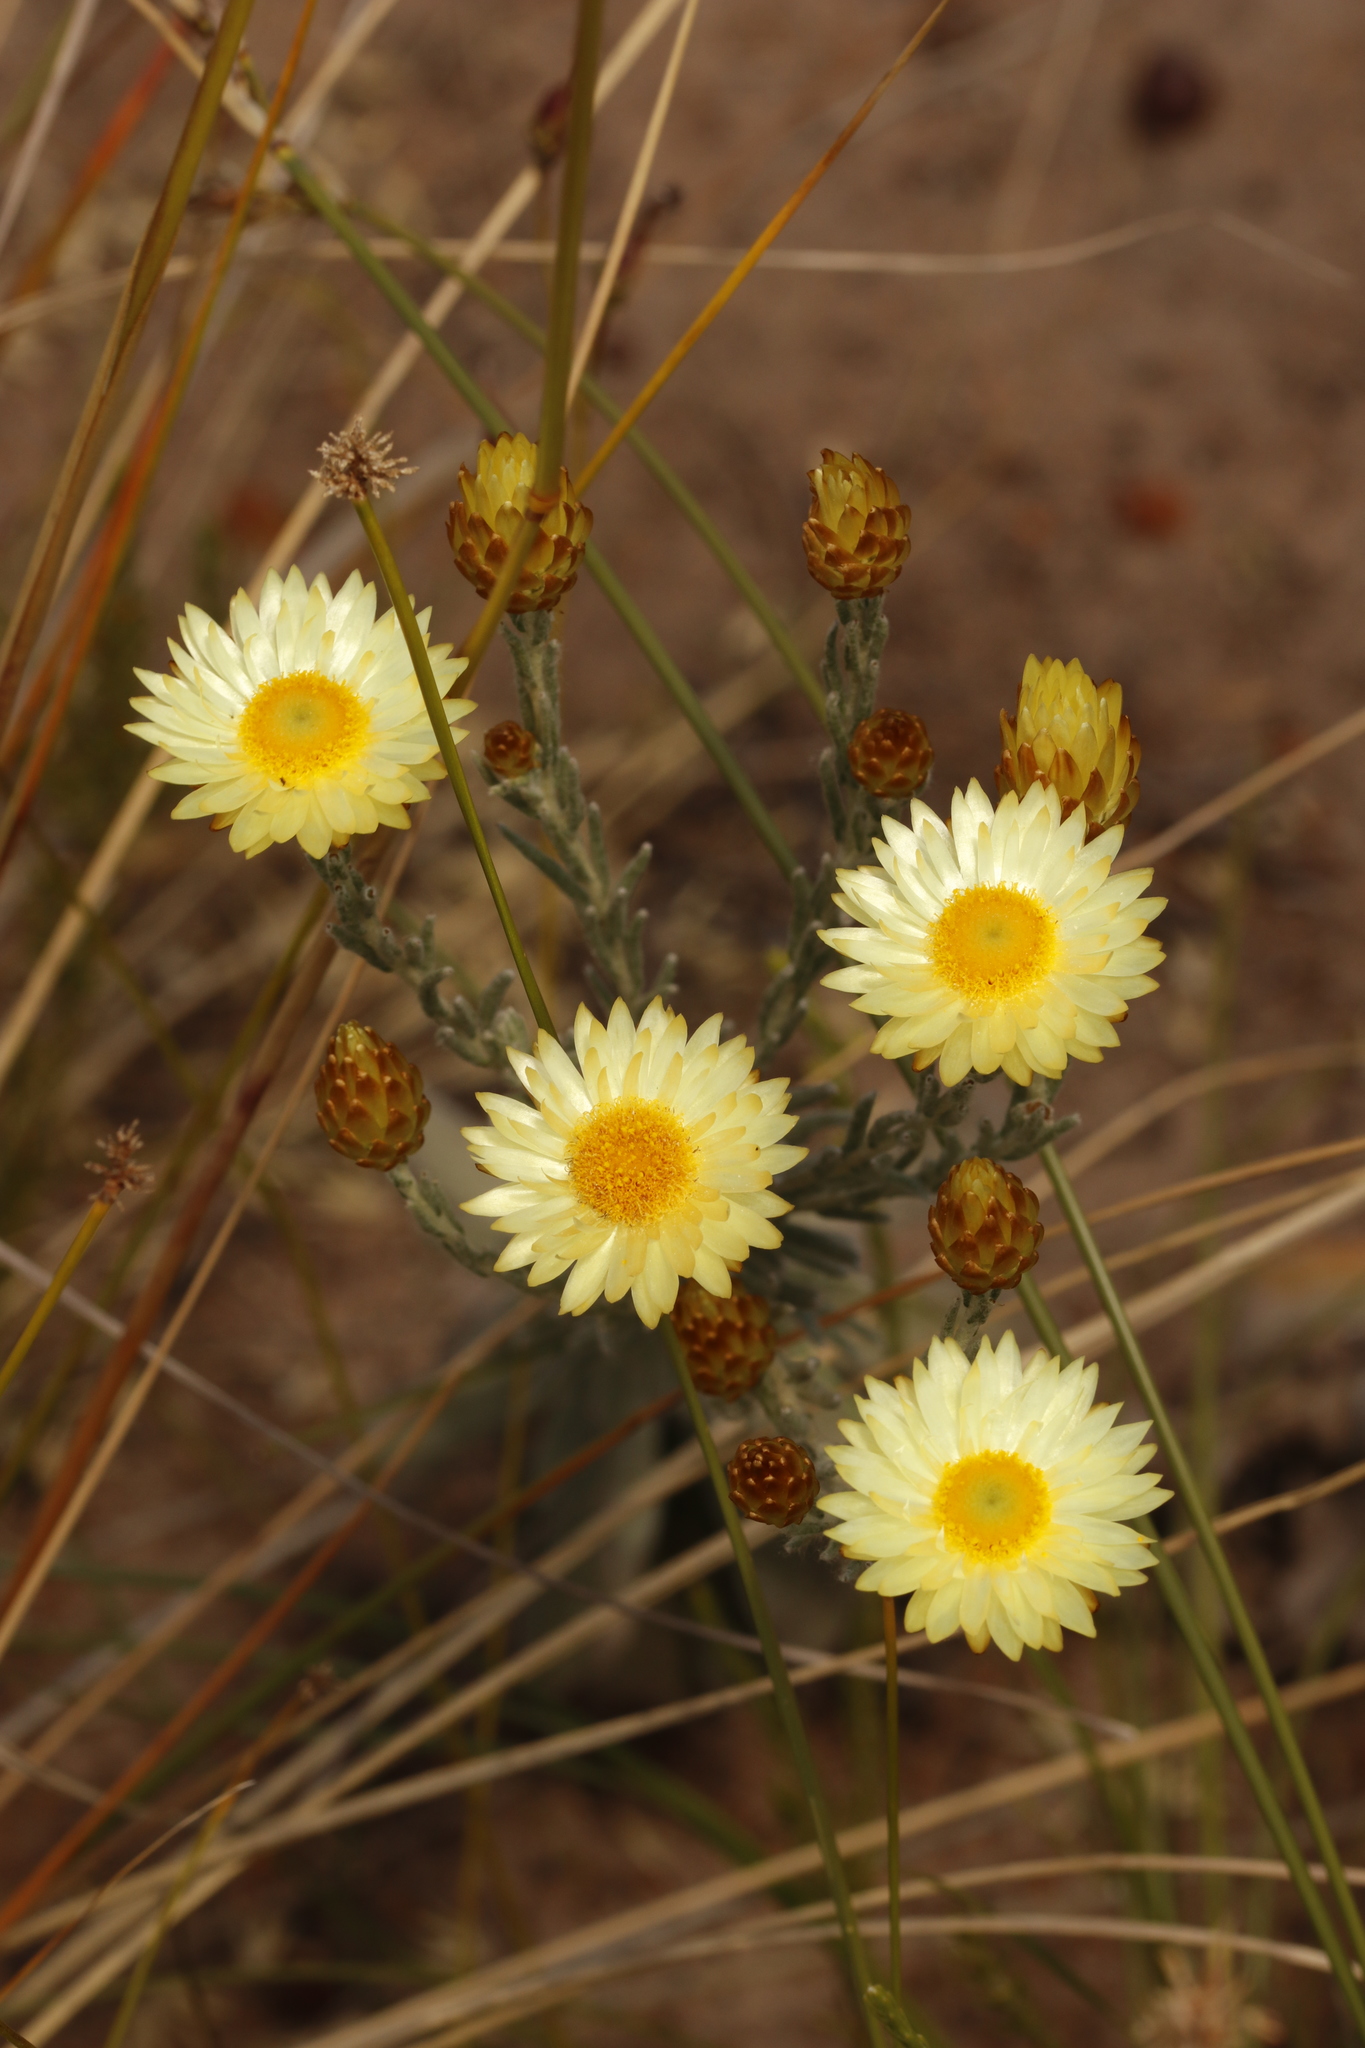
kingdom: Plantae
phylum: Tracheophyta
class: Magnoliopsida
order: Asterales
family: Asteraceae
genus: Helichrysum
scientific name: Helichrysum herbaceum
